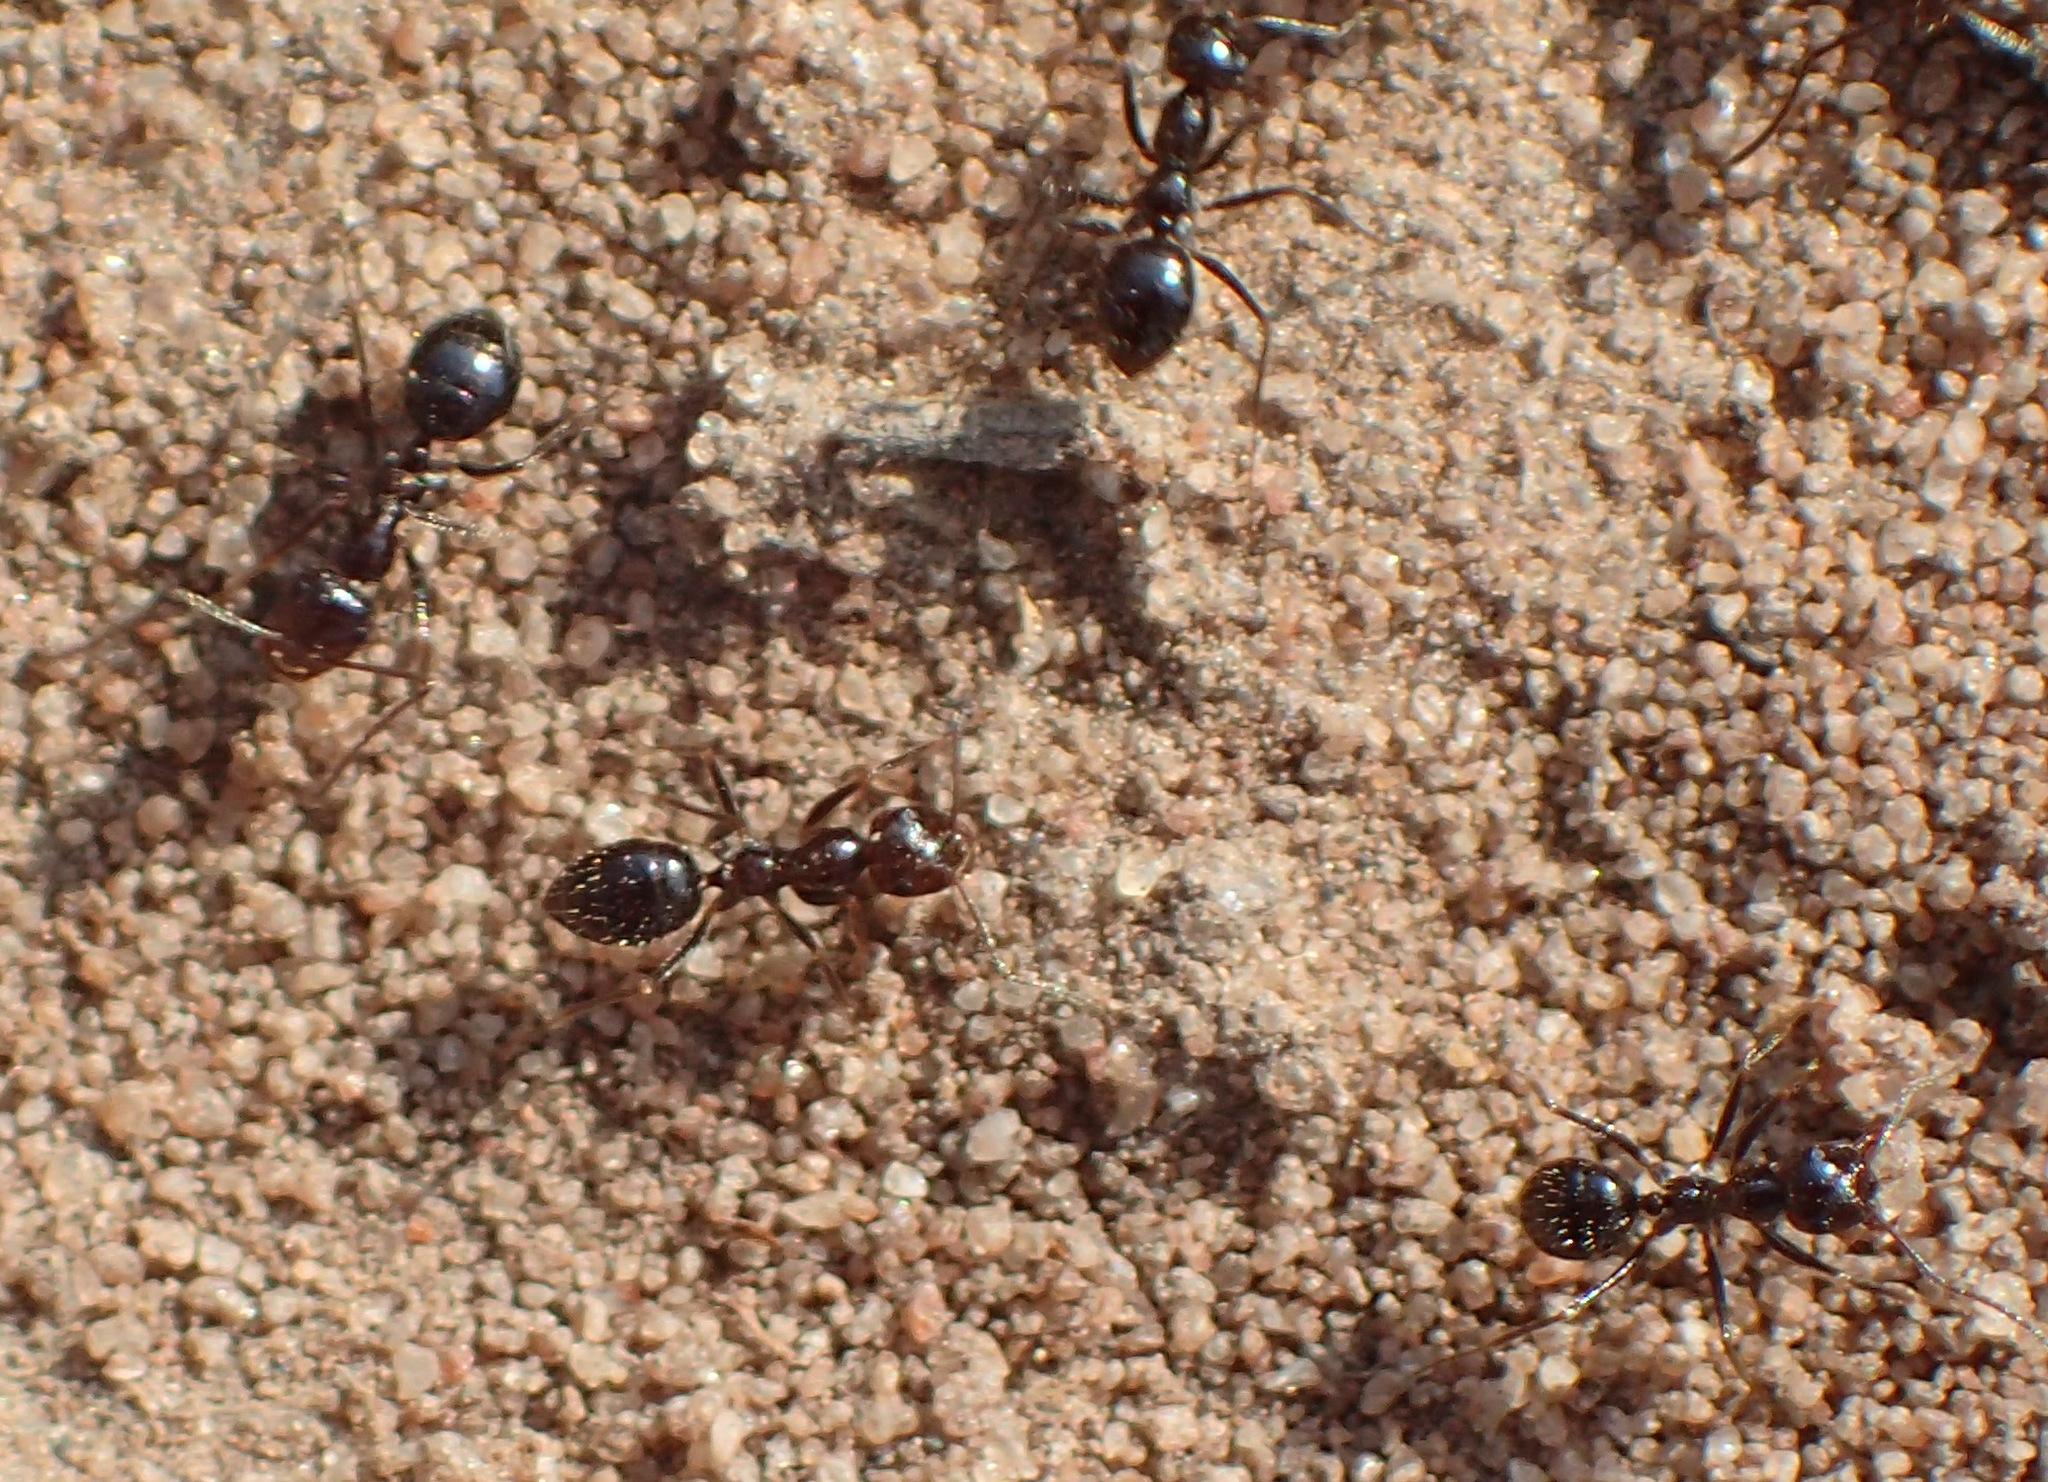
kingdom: Animalia
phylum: Arthropoda
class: Insecta
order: Hymenoptera
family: Formicidae
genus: Anoplolepis
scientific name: Anoplolepis steingroeveri
